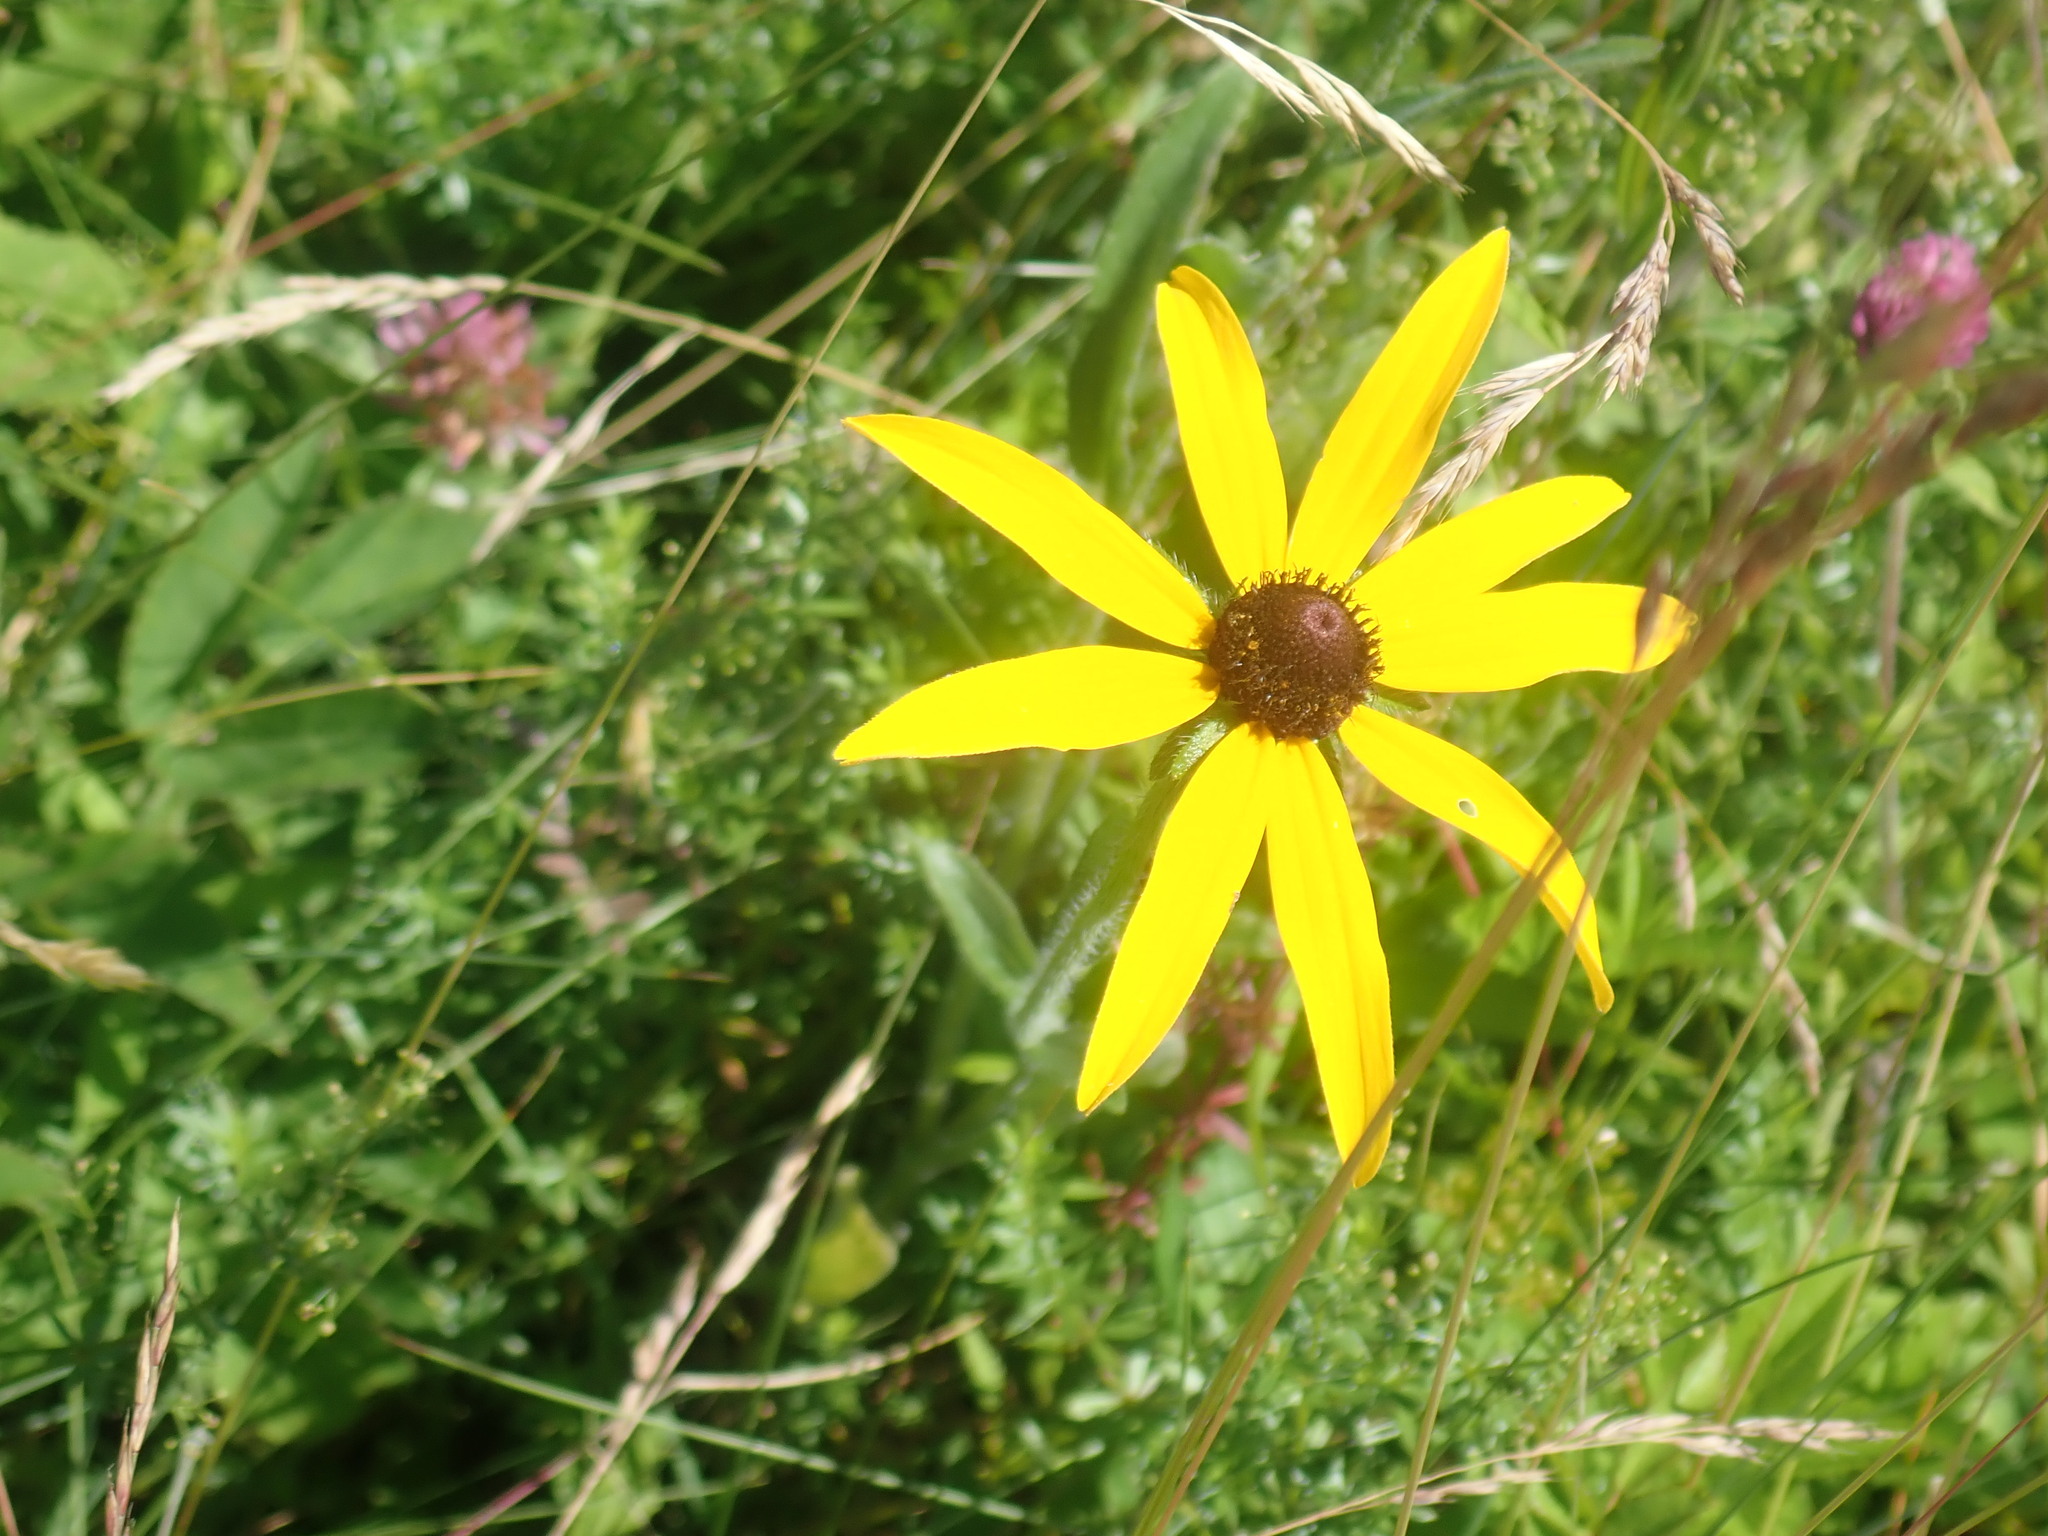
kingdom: Plantae
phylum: Tracheophyta
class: Magnoliopsida
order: Asterales
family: Asteraceae
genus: Rudbeckia
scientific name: Rudbeckia hirta
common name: Black-eyed-susan
